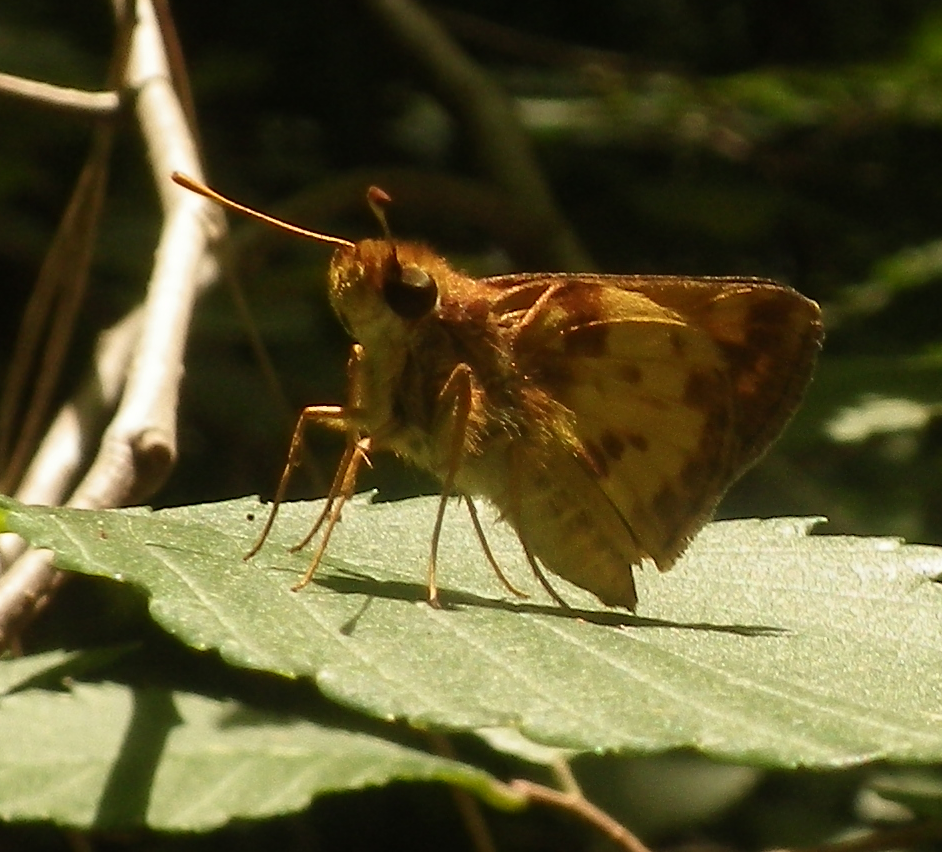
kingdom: Animalia
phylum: Arthropoda
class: Insecta
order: Lepidoptera
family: Hesperiidae
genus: Lon
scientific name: Lon zabulon
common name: Zabulon skipper
